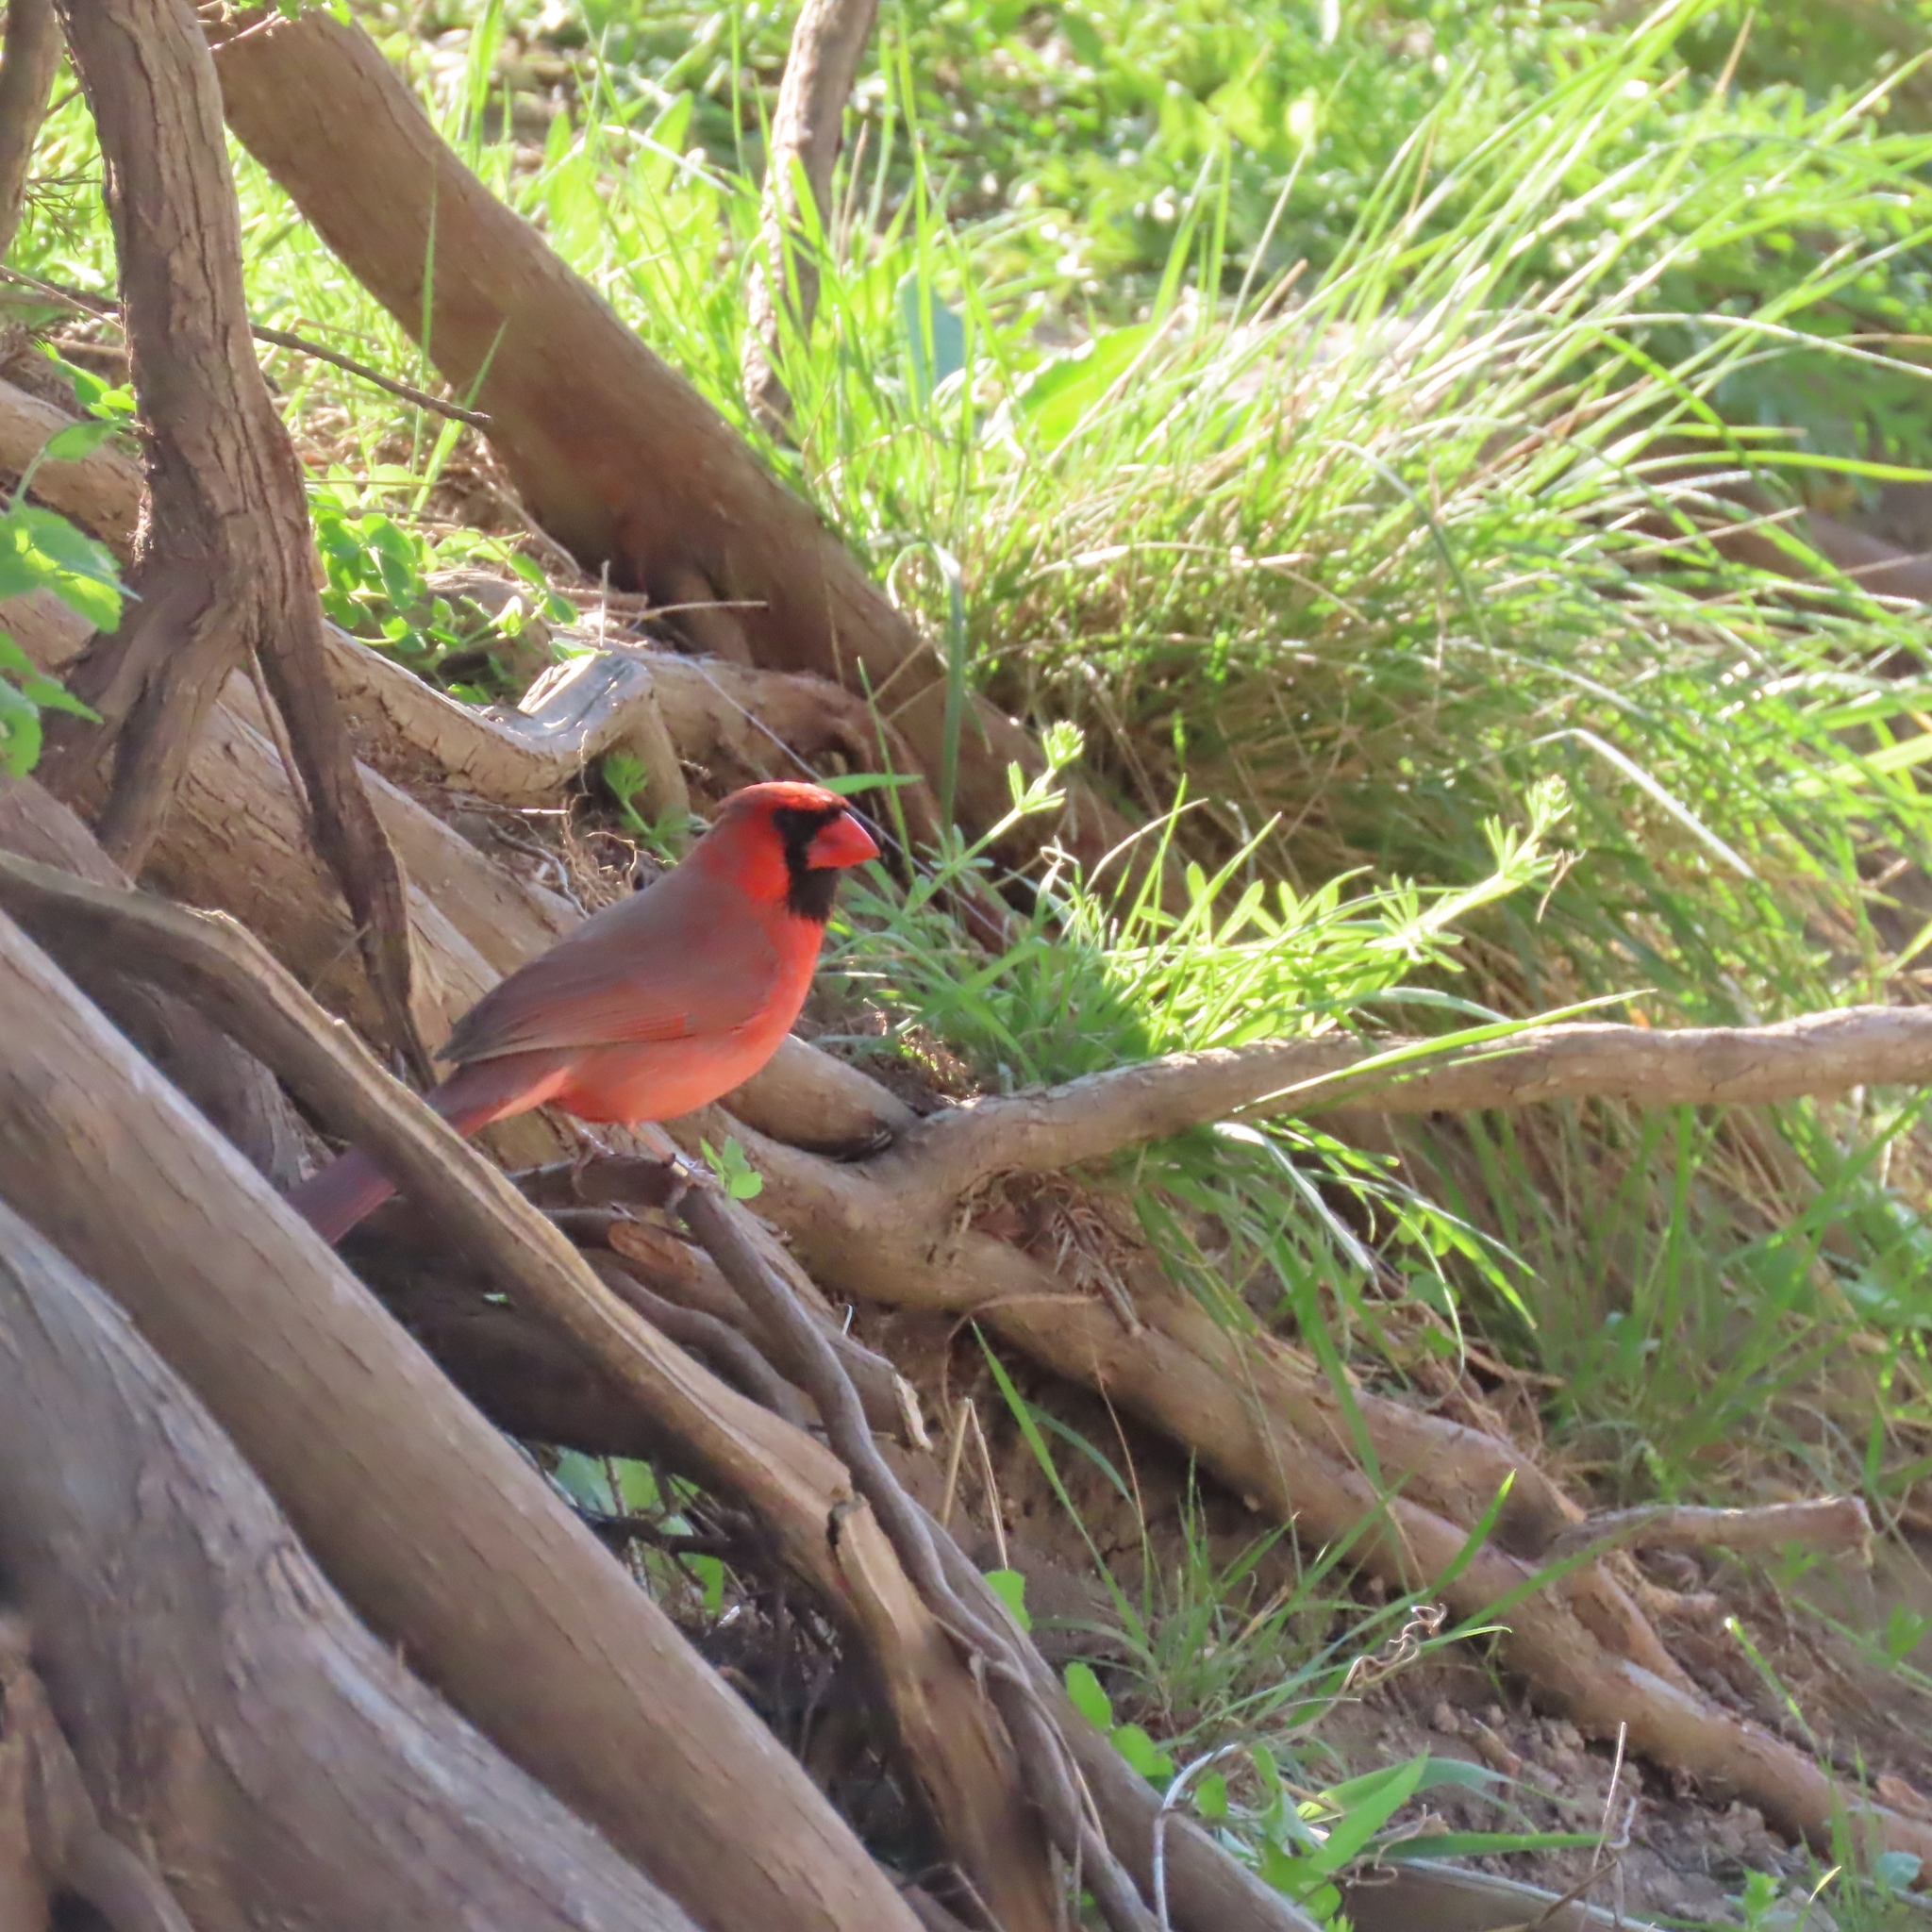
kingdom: Animalia
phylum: Chordata
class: Aves
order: Passeriformes
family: Cardinalidae
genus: Cardinalis
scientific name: Cardinalis cardinalis
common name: Northern cardinal
